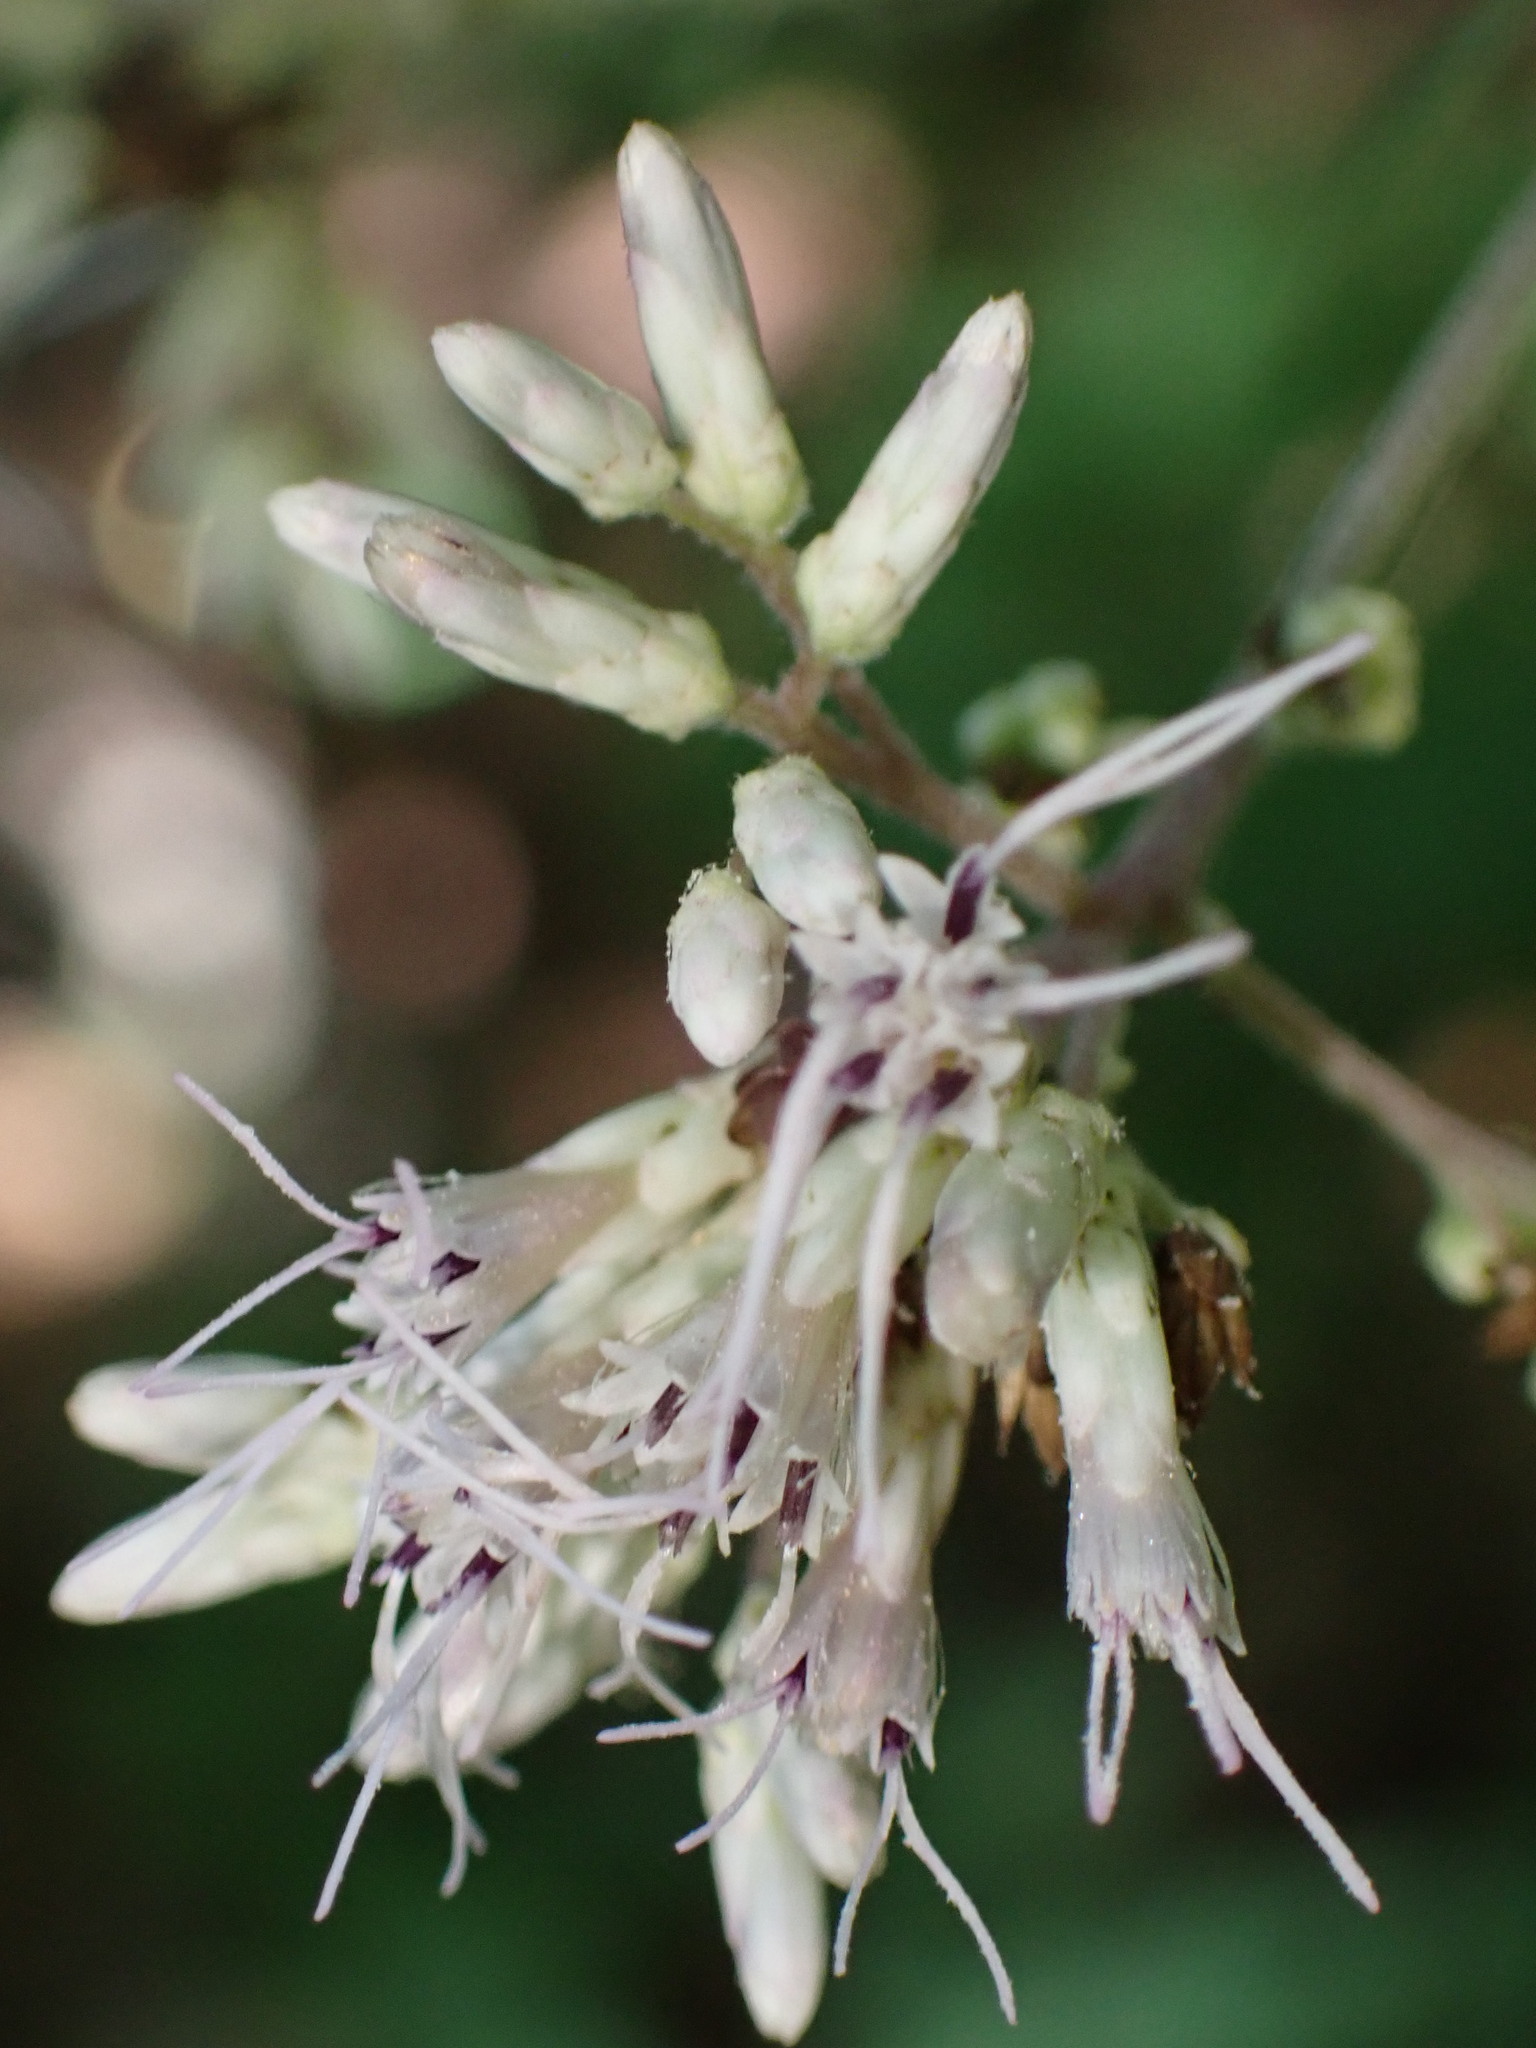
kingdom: Plantae
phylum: Tracheophyta
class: Magnoliopsida
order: Asterales
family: Asteraceae
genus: Eupatorium
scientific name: Eupatorium sessilifolium
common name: Upland boneset
